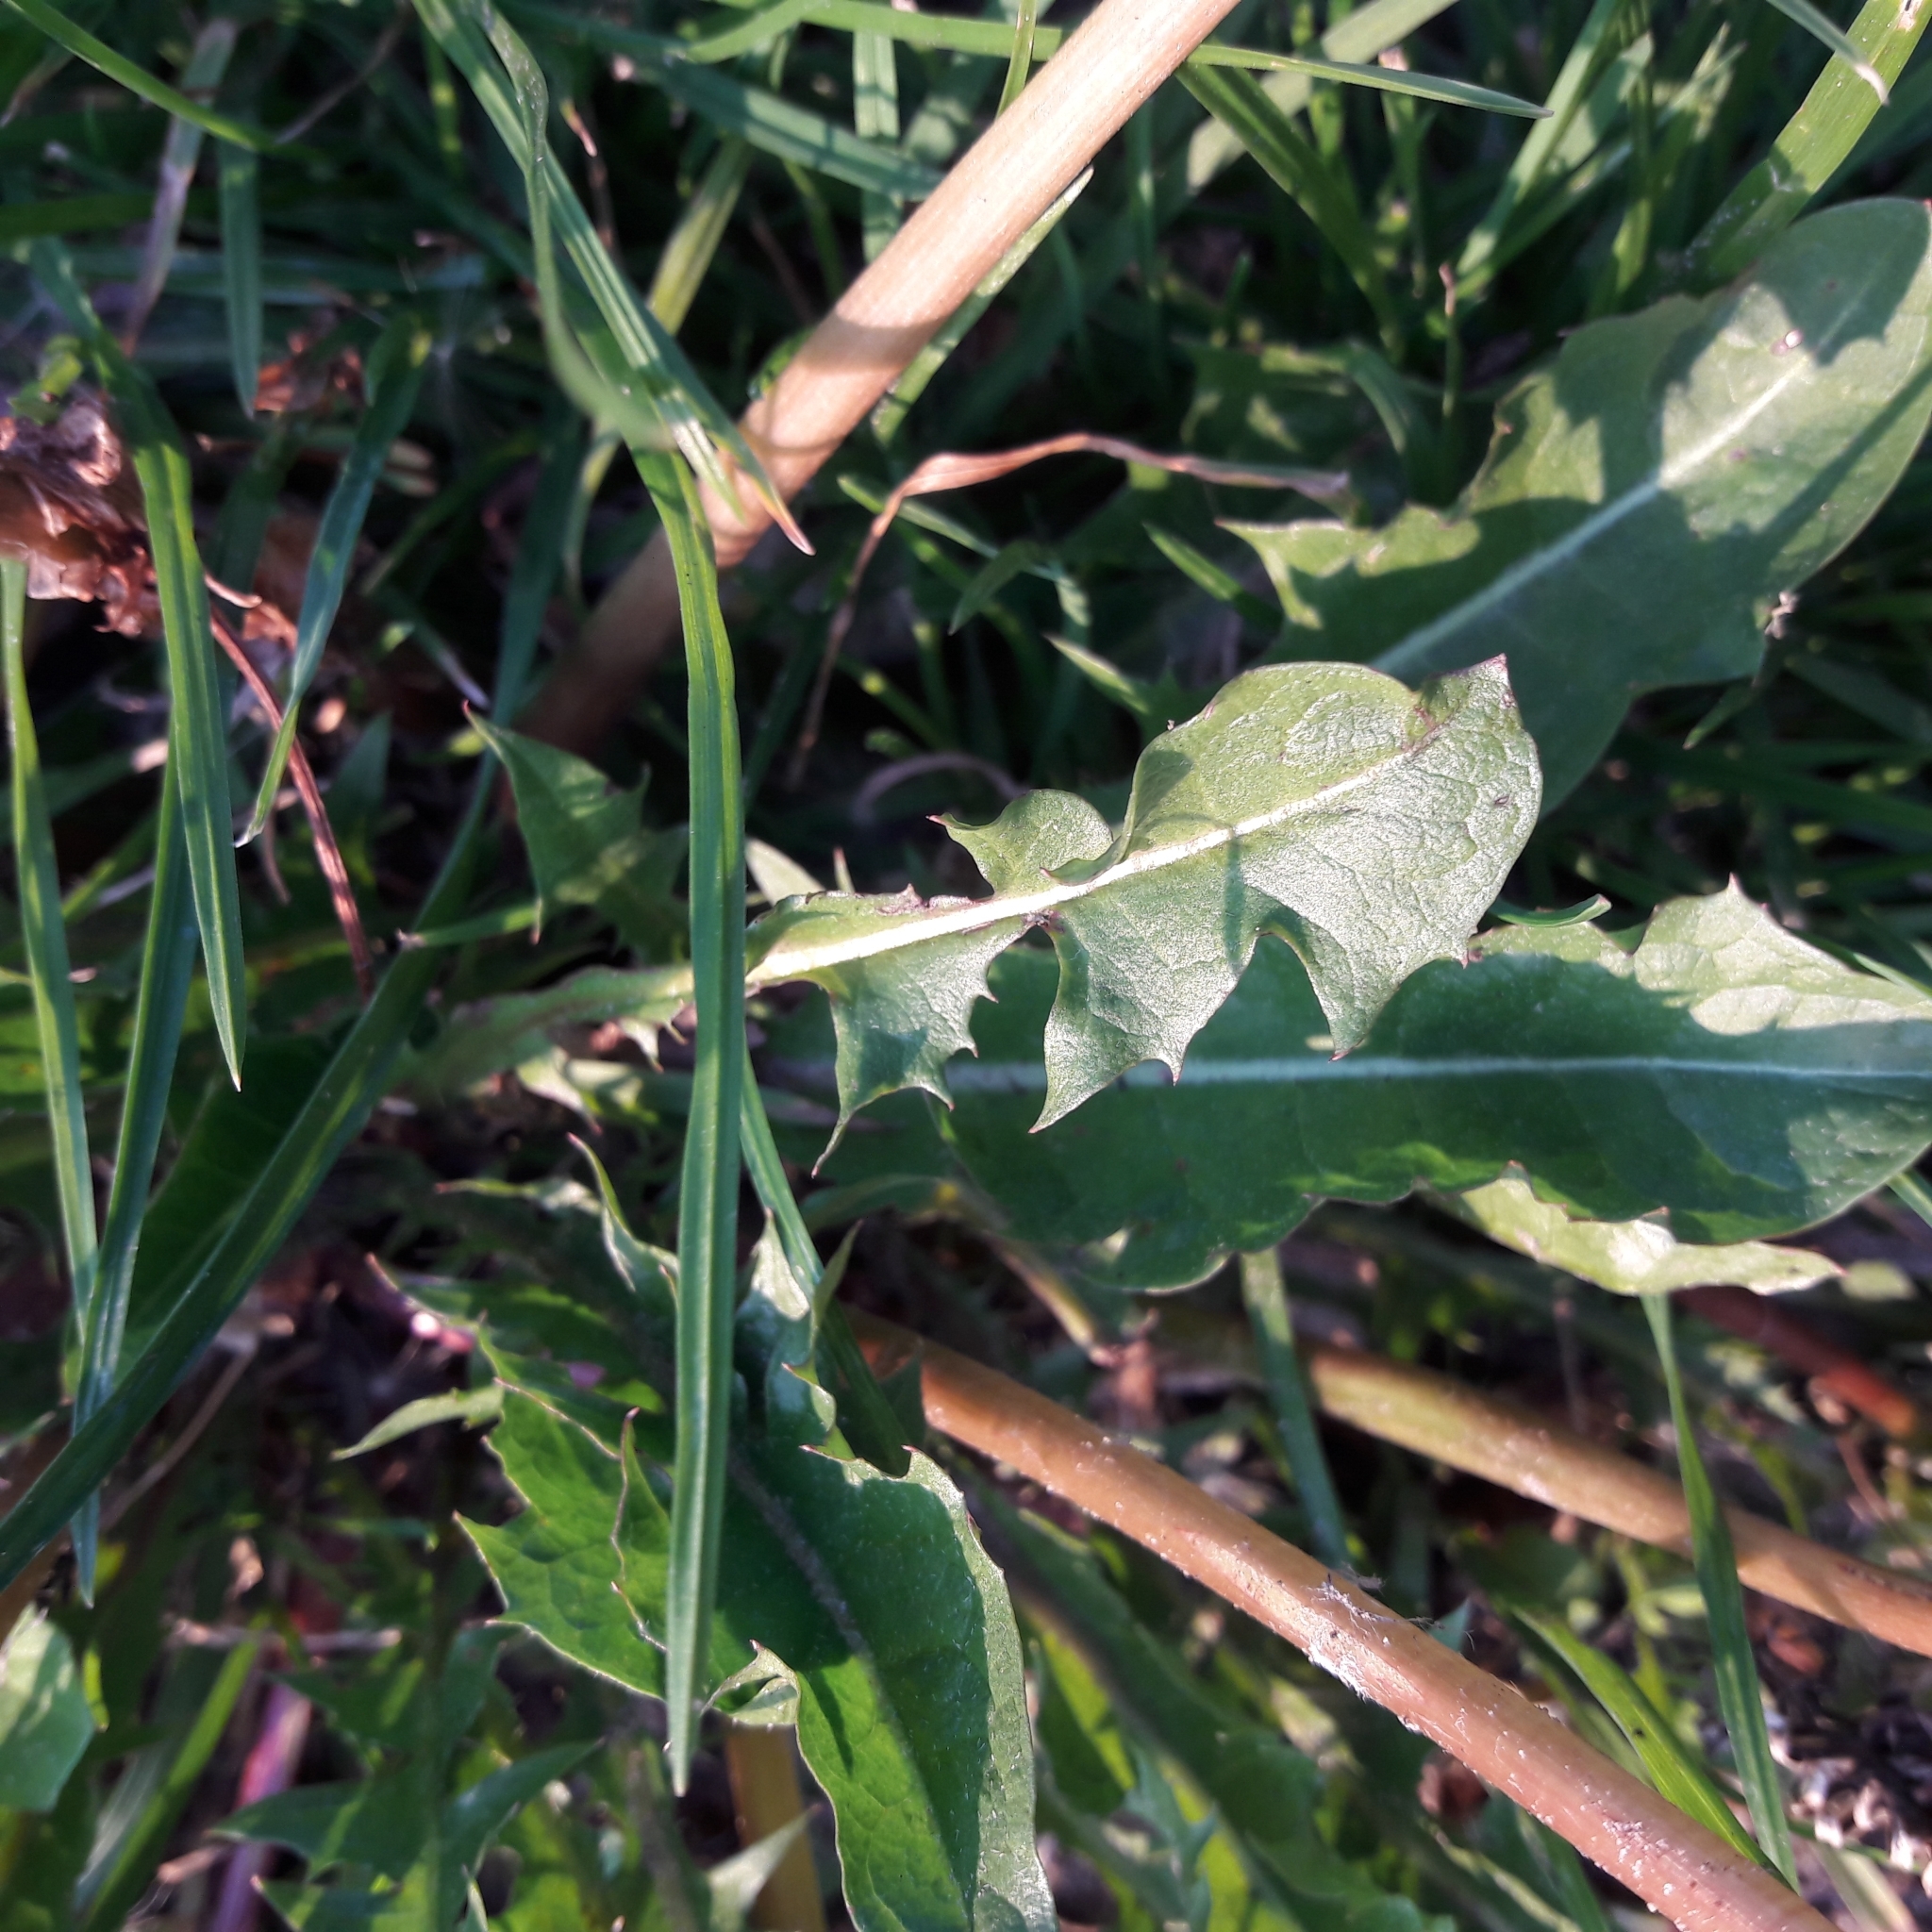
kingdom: Plantae
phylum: Tracheophyta
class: Magnoliopsida
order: Asterales
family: Asteraceae
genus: Taraxacum
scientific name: Taraxacum officinale
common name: Common dandelion
